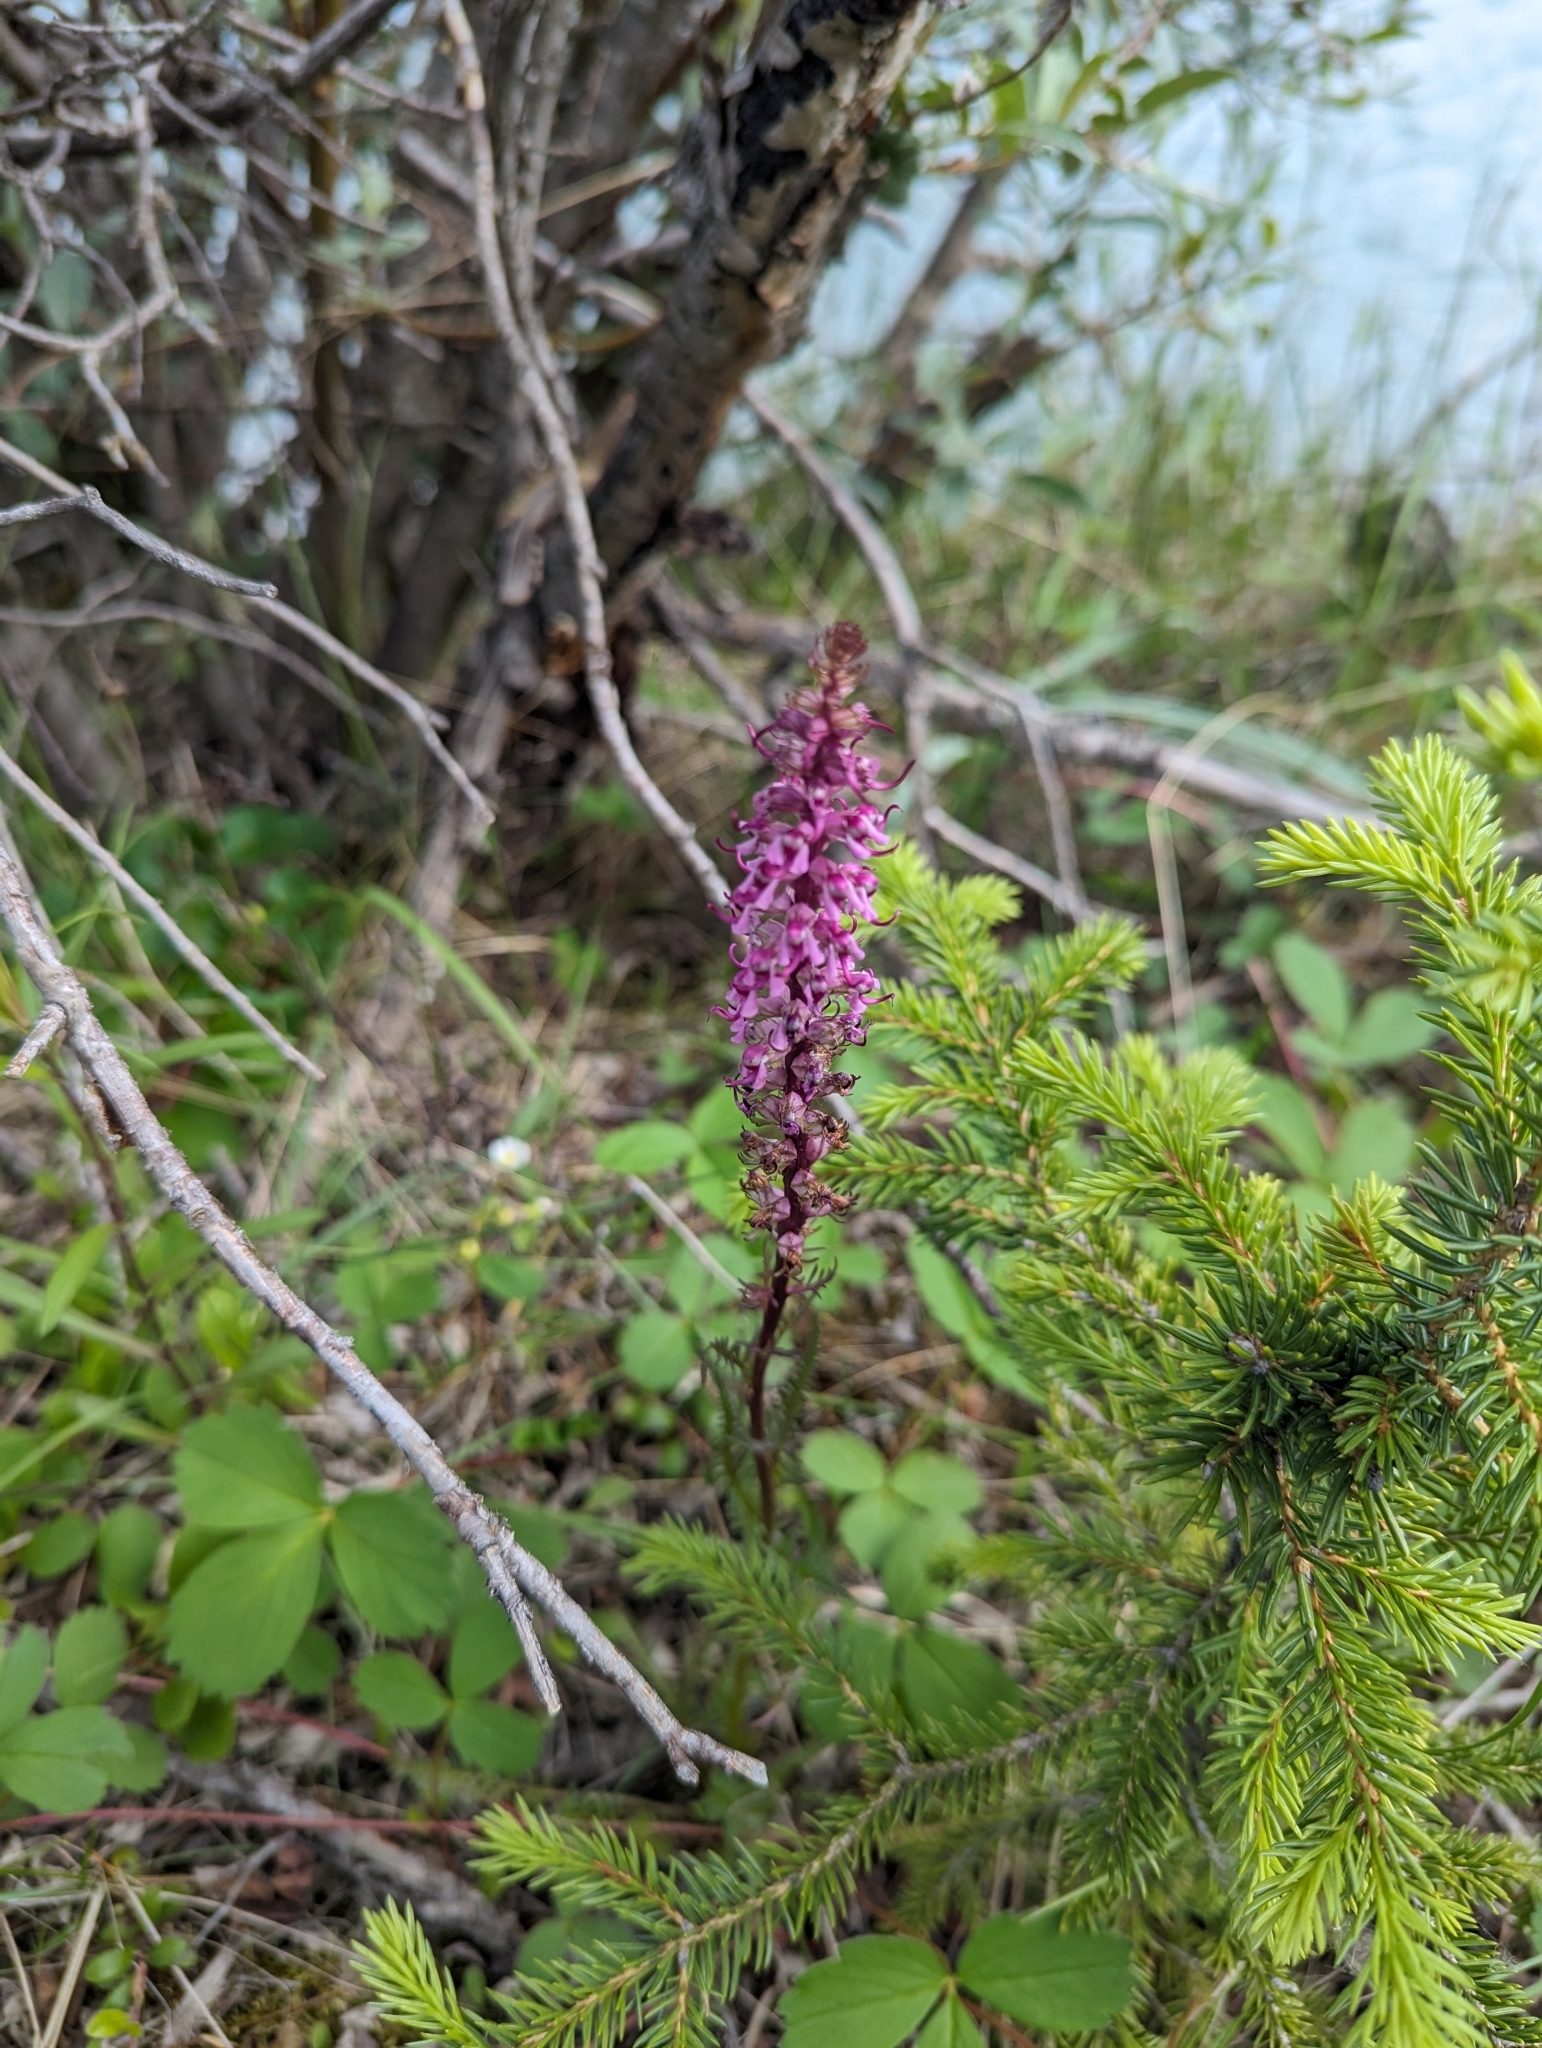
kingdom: Plantae
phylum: Tracheophyta
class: Magnoliopsida
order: Lamiales
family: Orobanchaceae
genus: Pedicularis
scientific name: Pedicularis groenlandica
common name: Elephant's-head
